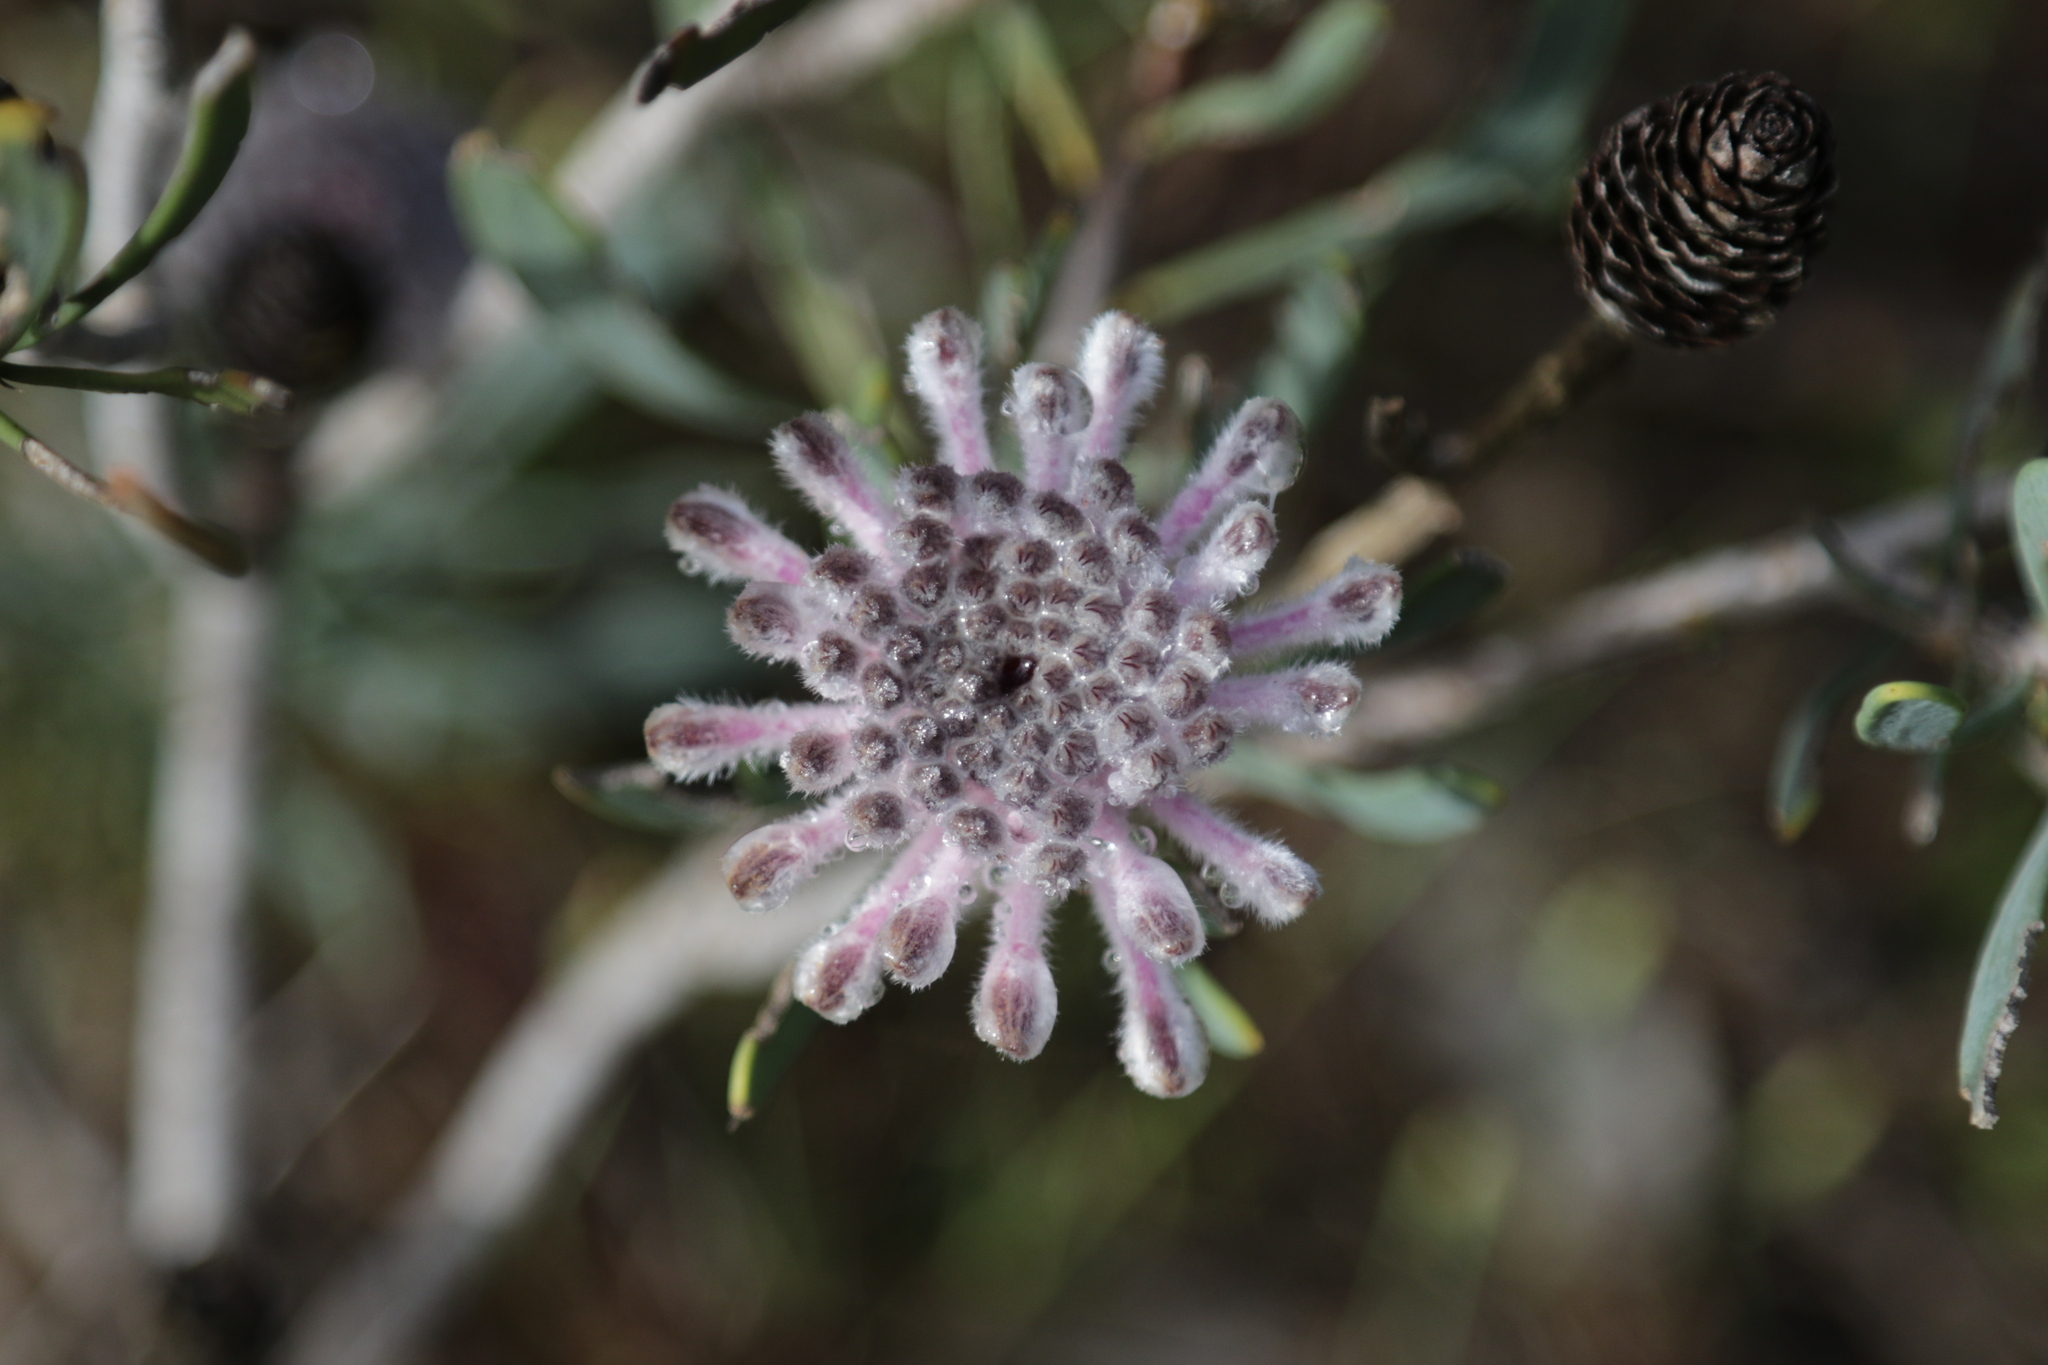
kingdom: Plantae
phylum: Tracheophyta
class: Magnoliopsida
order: Proteales
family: Proteaceae
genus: Petrophile
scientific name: Petrophile linearis
